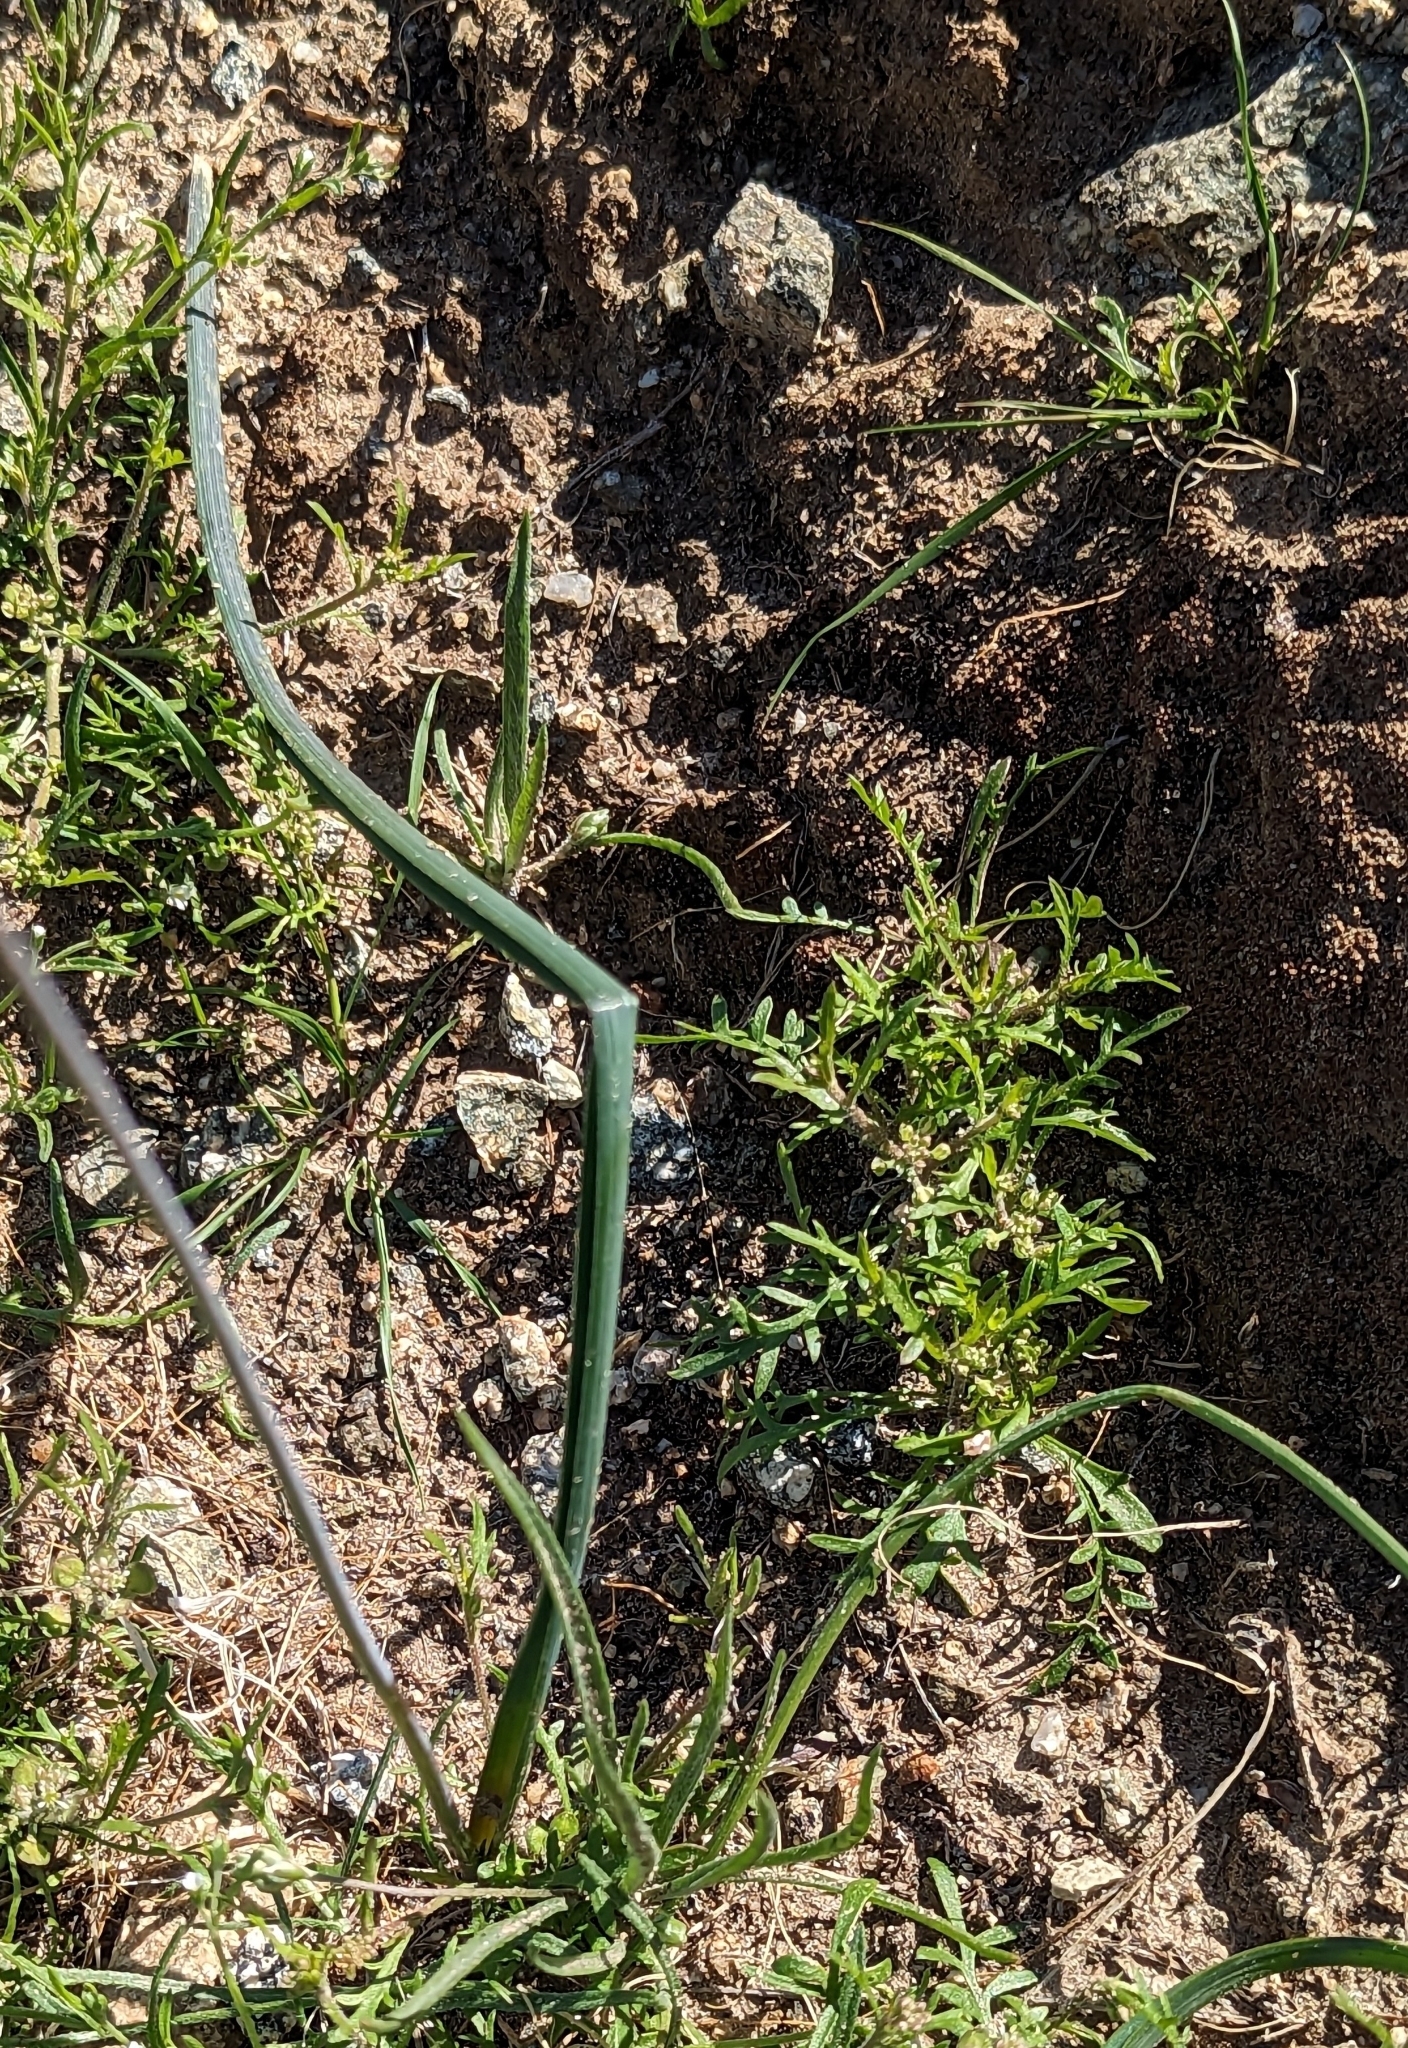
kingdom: Plantae
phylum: Tracheophyta
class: Liliopsida
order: Asparagales
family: Asparagaceae
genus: Dipterostemon
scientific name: Dipterostemon capitatus
